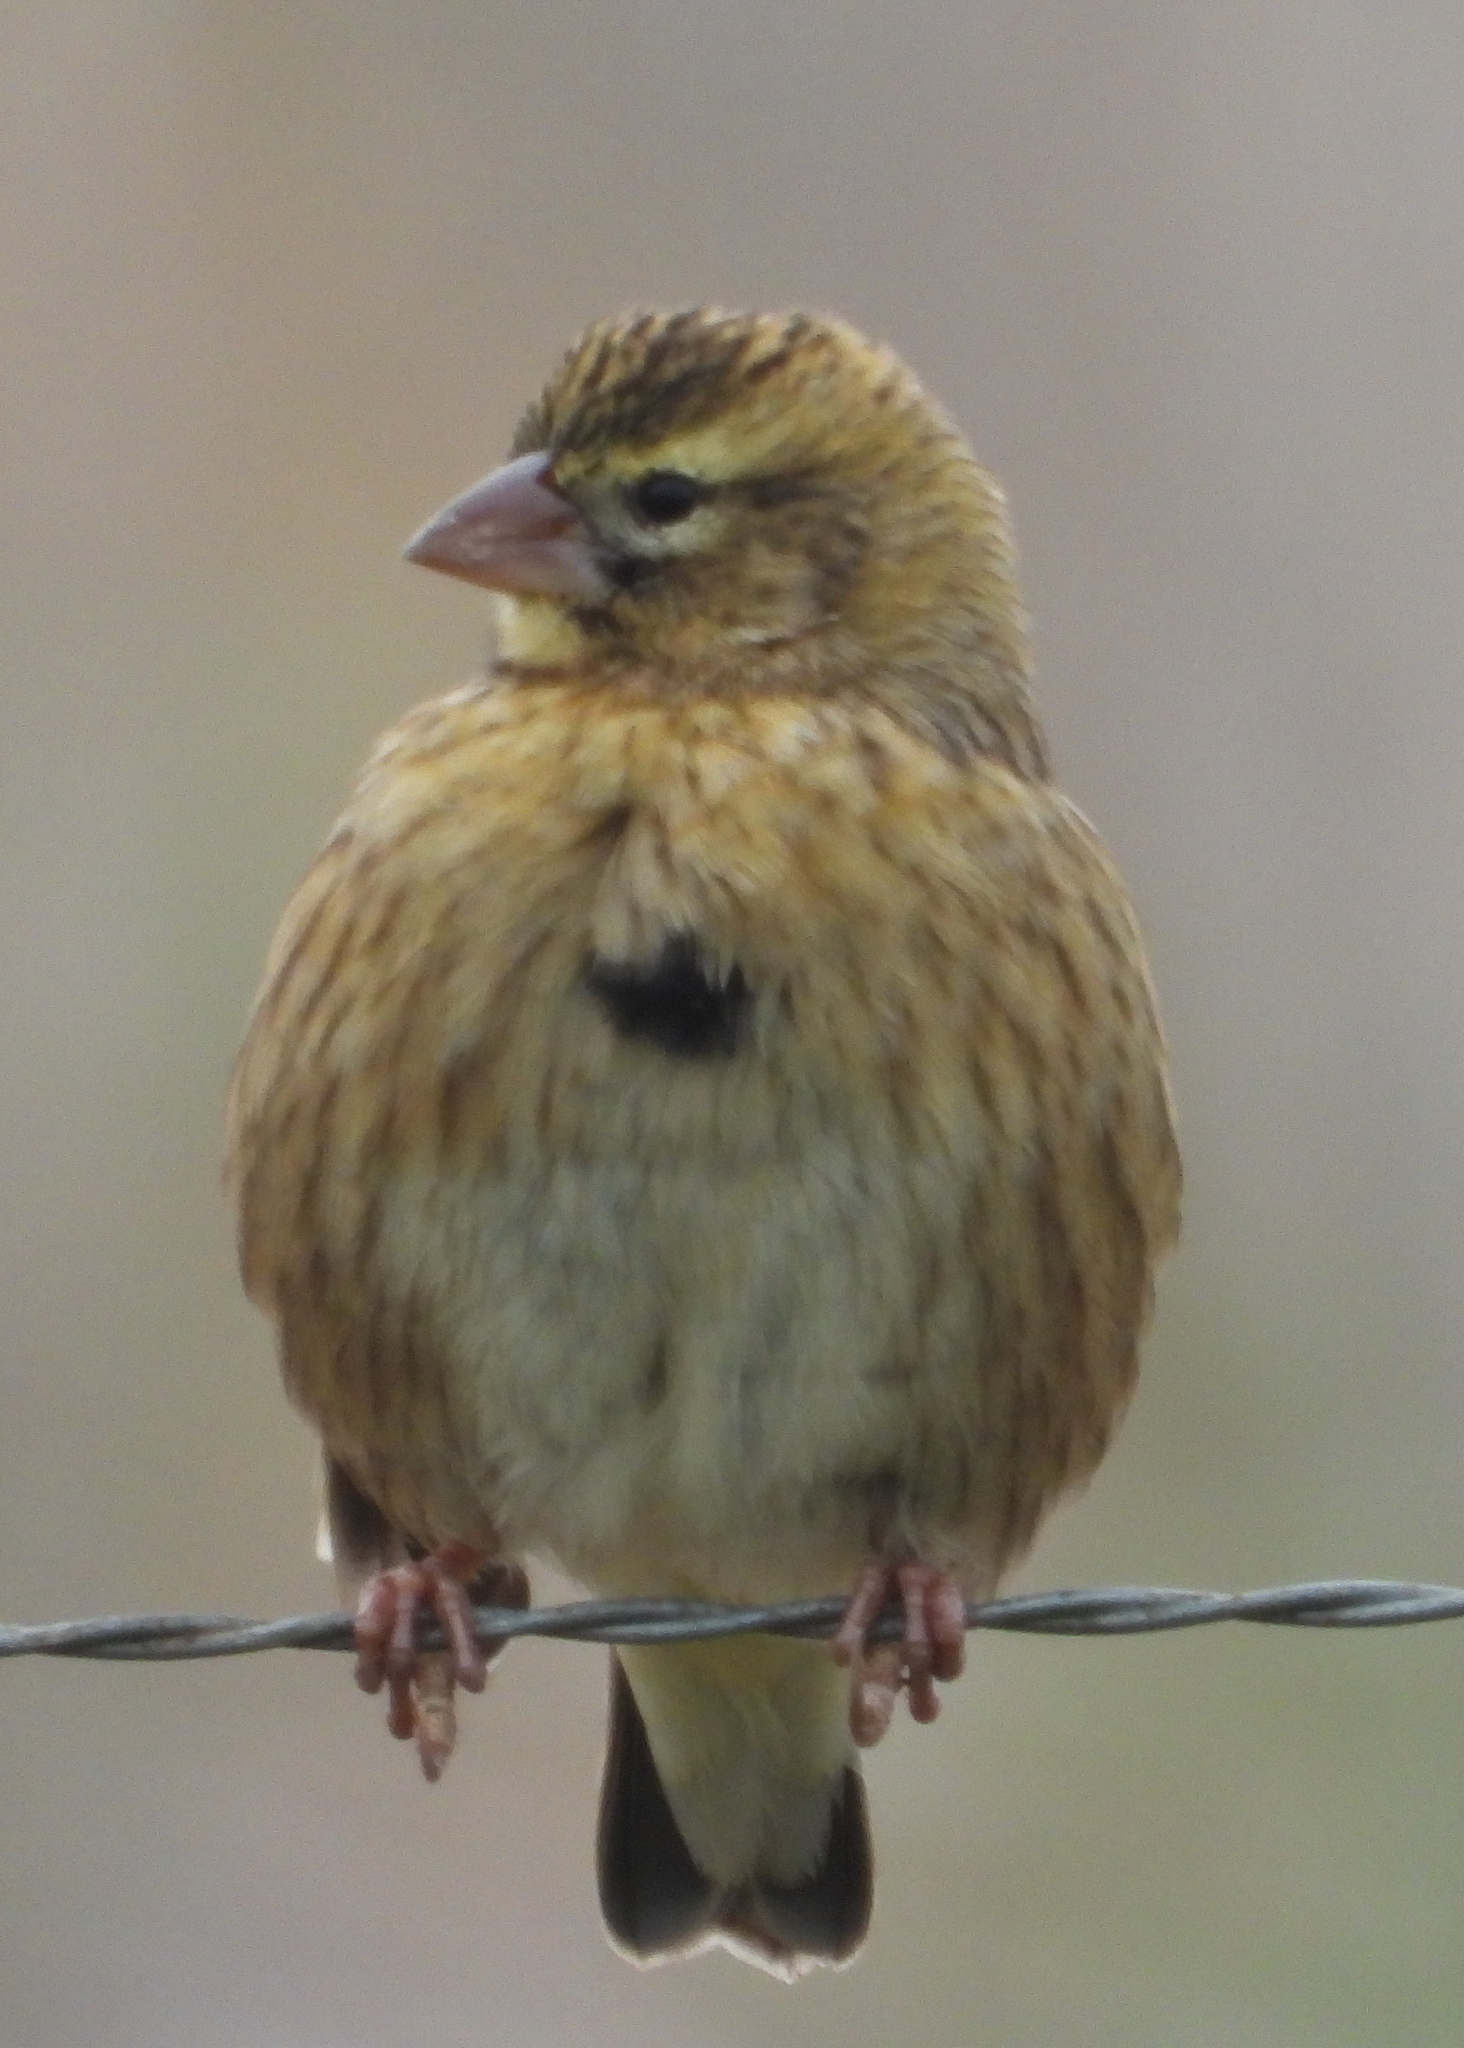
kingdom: Animalia
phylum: Chordata
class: Aves
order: Passeriformes
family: Ploceidae
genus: Euplectes
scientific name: Euplectes orix
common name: Southern red bishop
